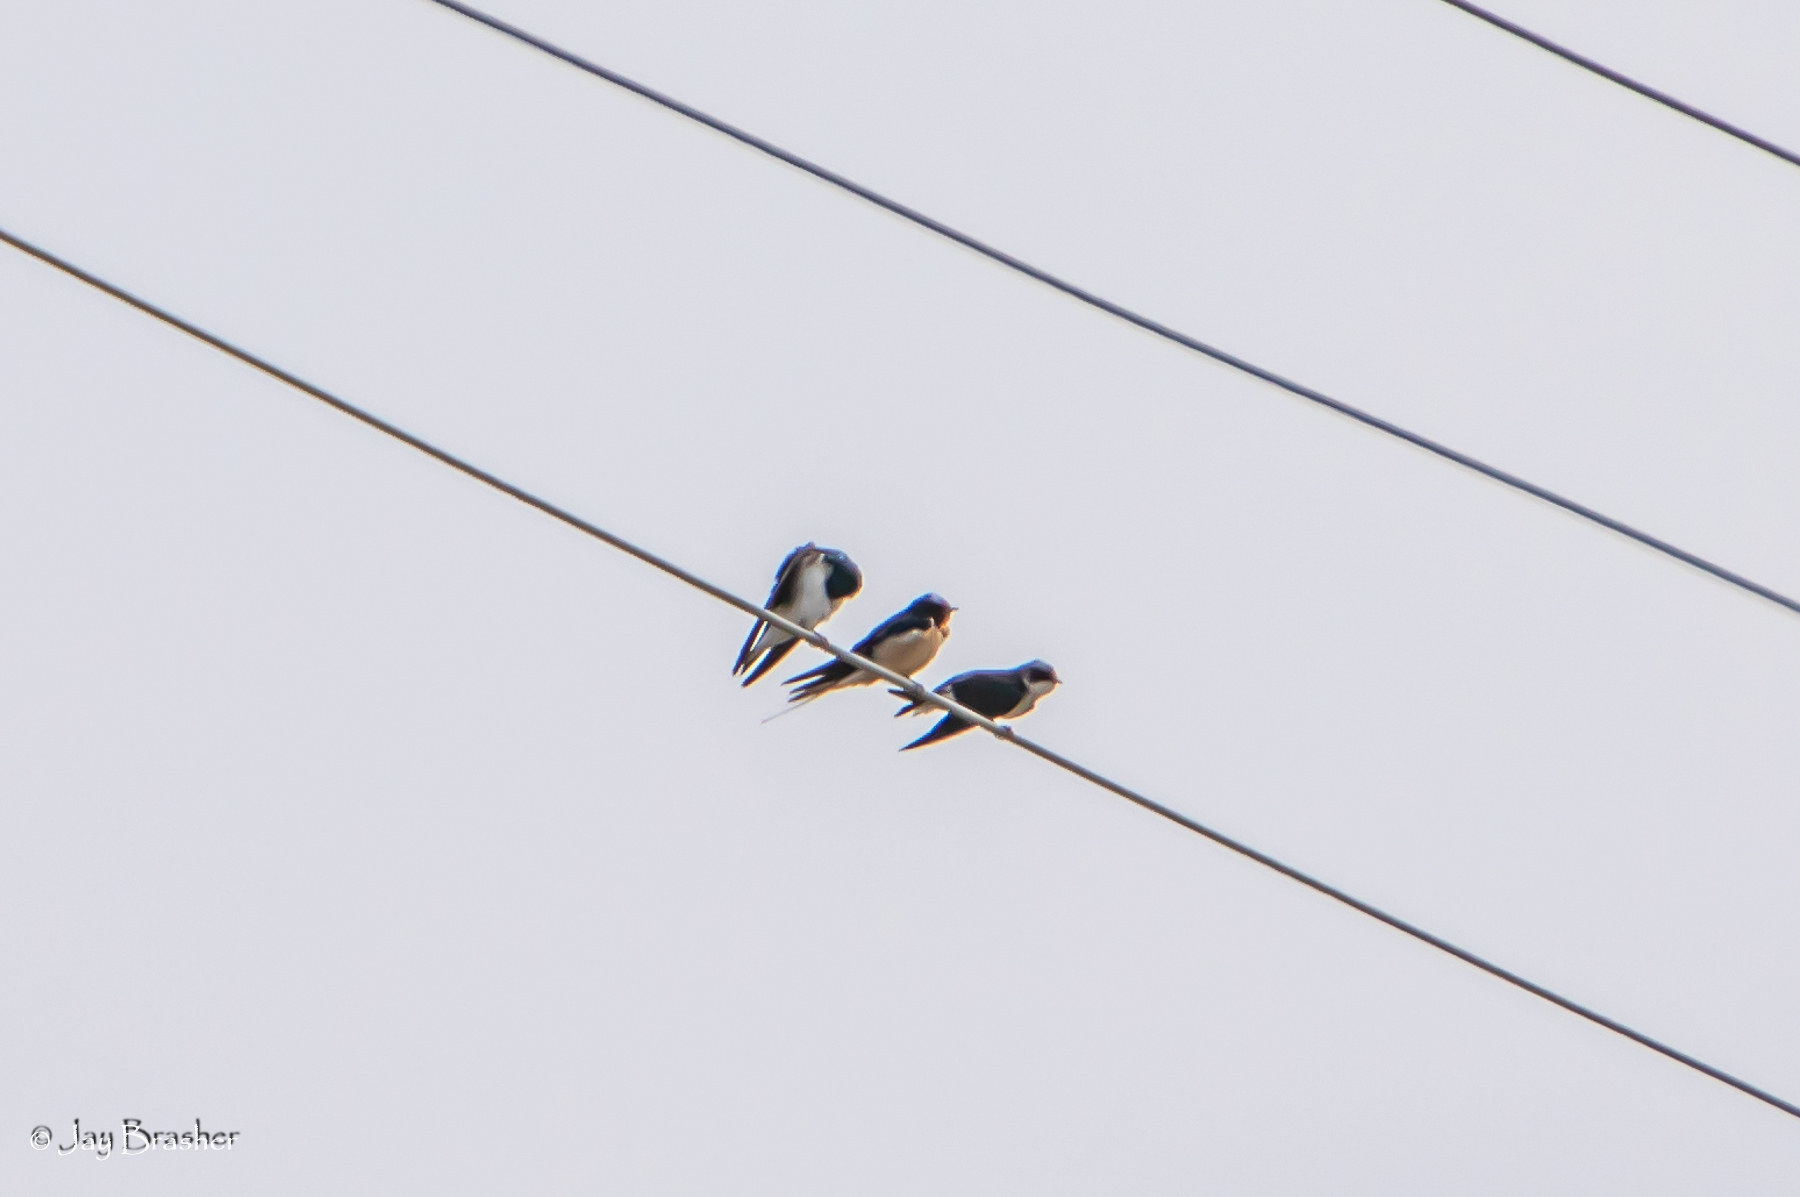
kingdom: Animalia
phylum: Chordata
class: Aves
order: Passeriformes
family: Hirundinidae
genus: Tachycineta
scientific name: Tachycineta bicolor
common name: Tree swallow
